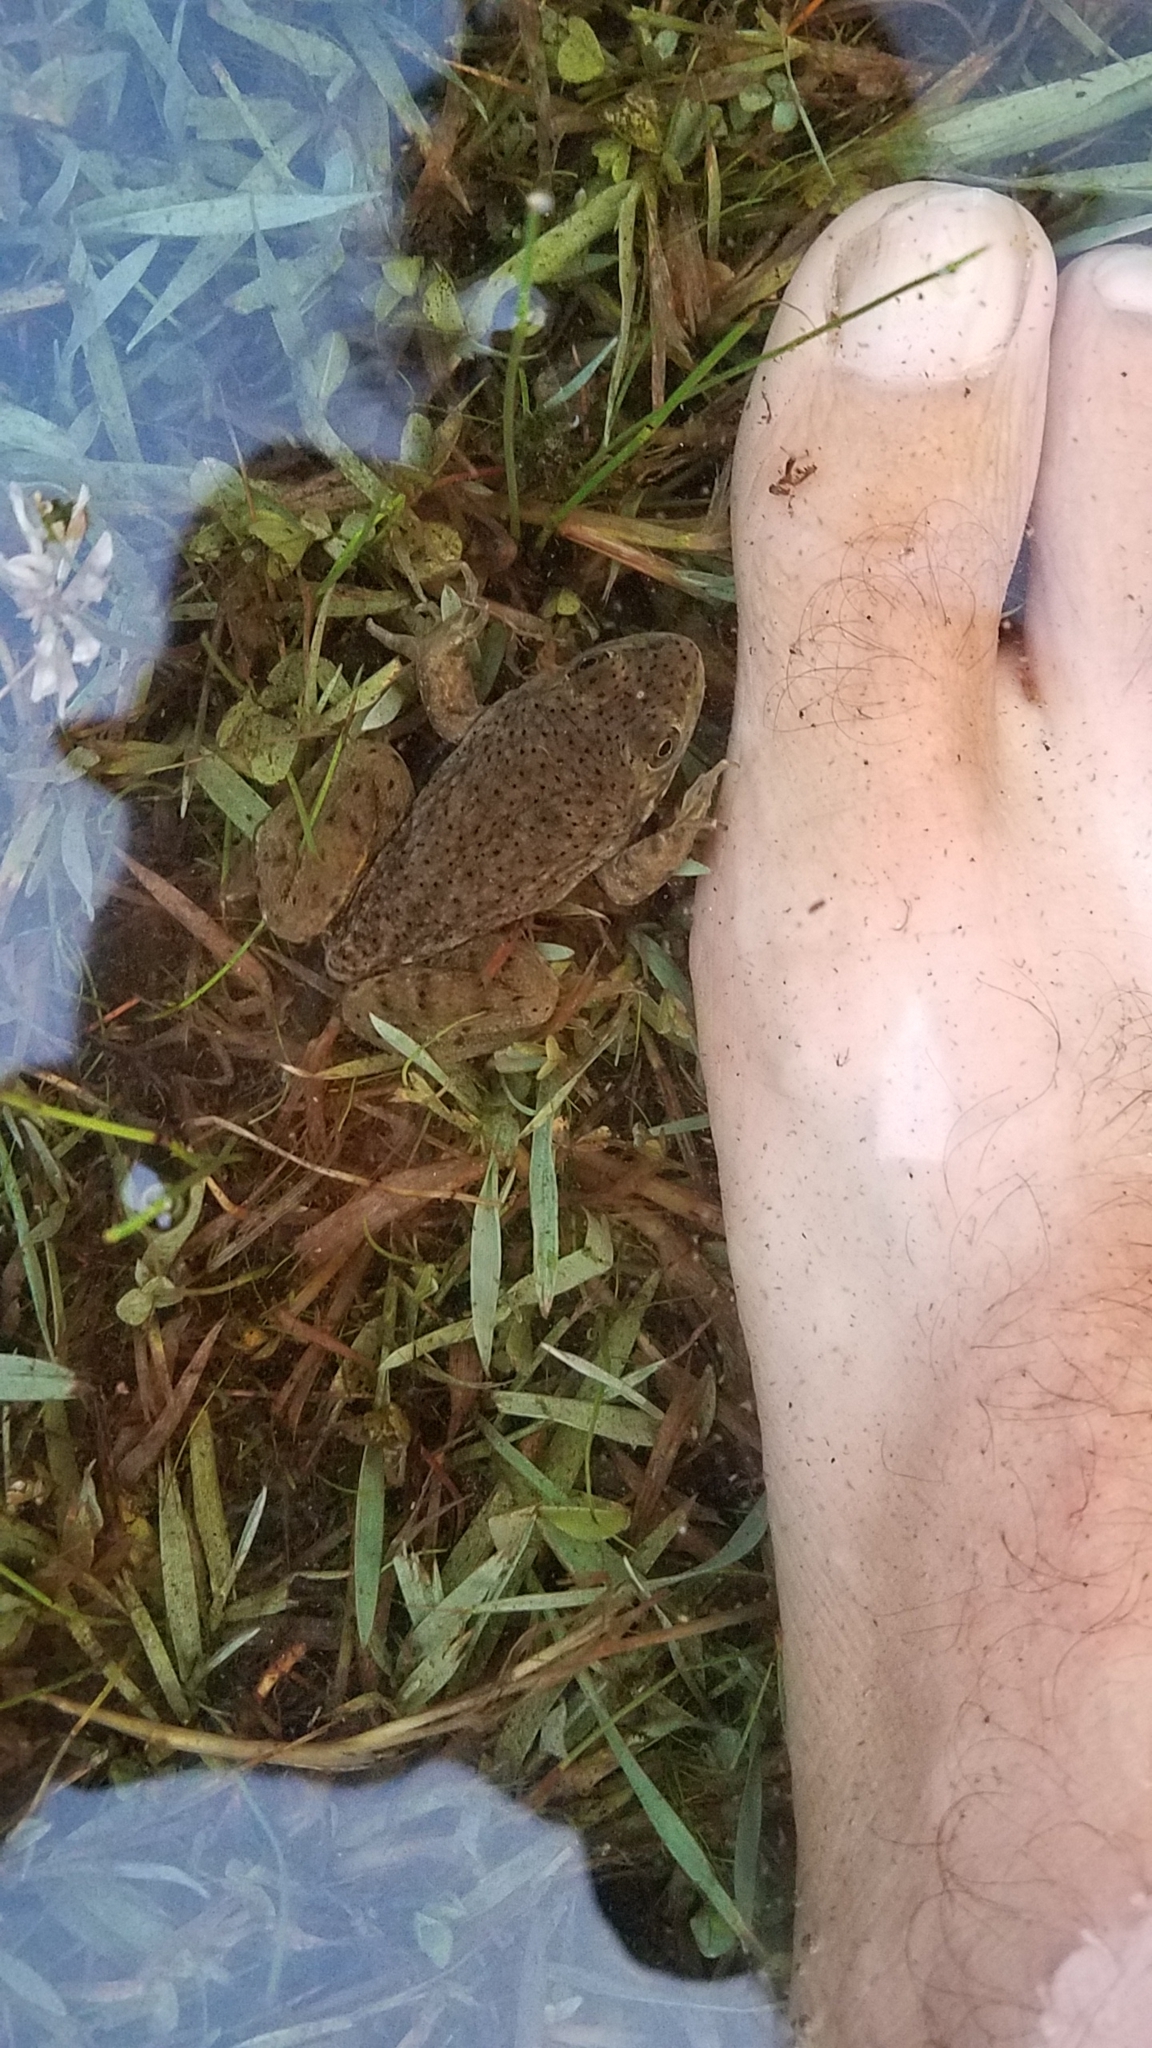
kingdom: Animalia
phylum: Chordata
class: Amphibia
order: Anura
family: Ranidae
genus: Lithobates
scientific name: Lithobates catesbeianus
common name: American bullfrog
